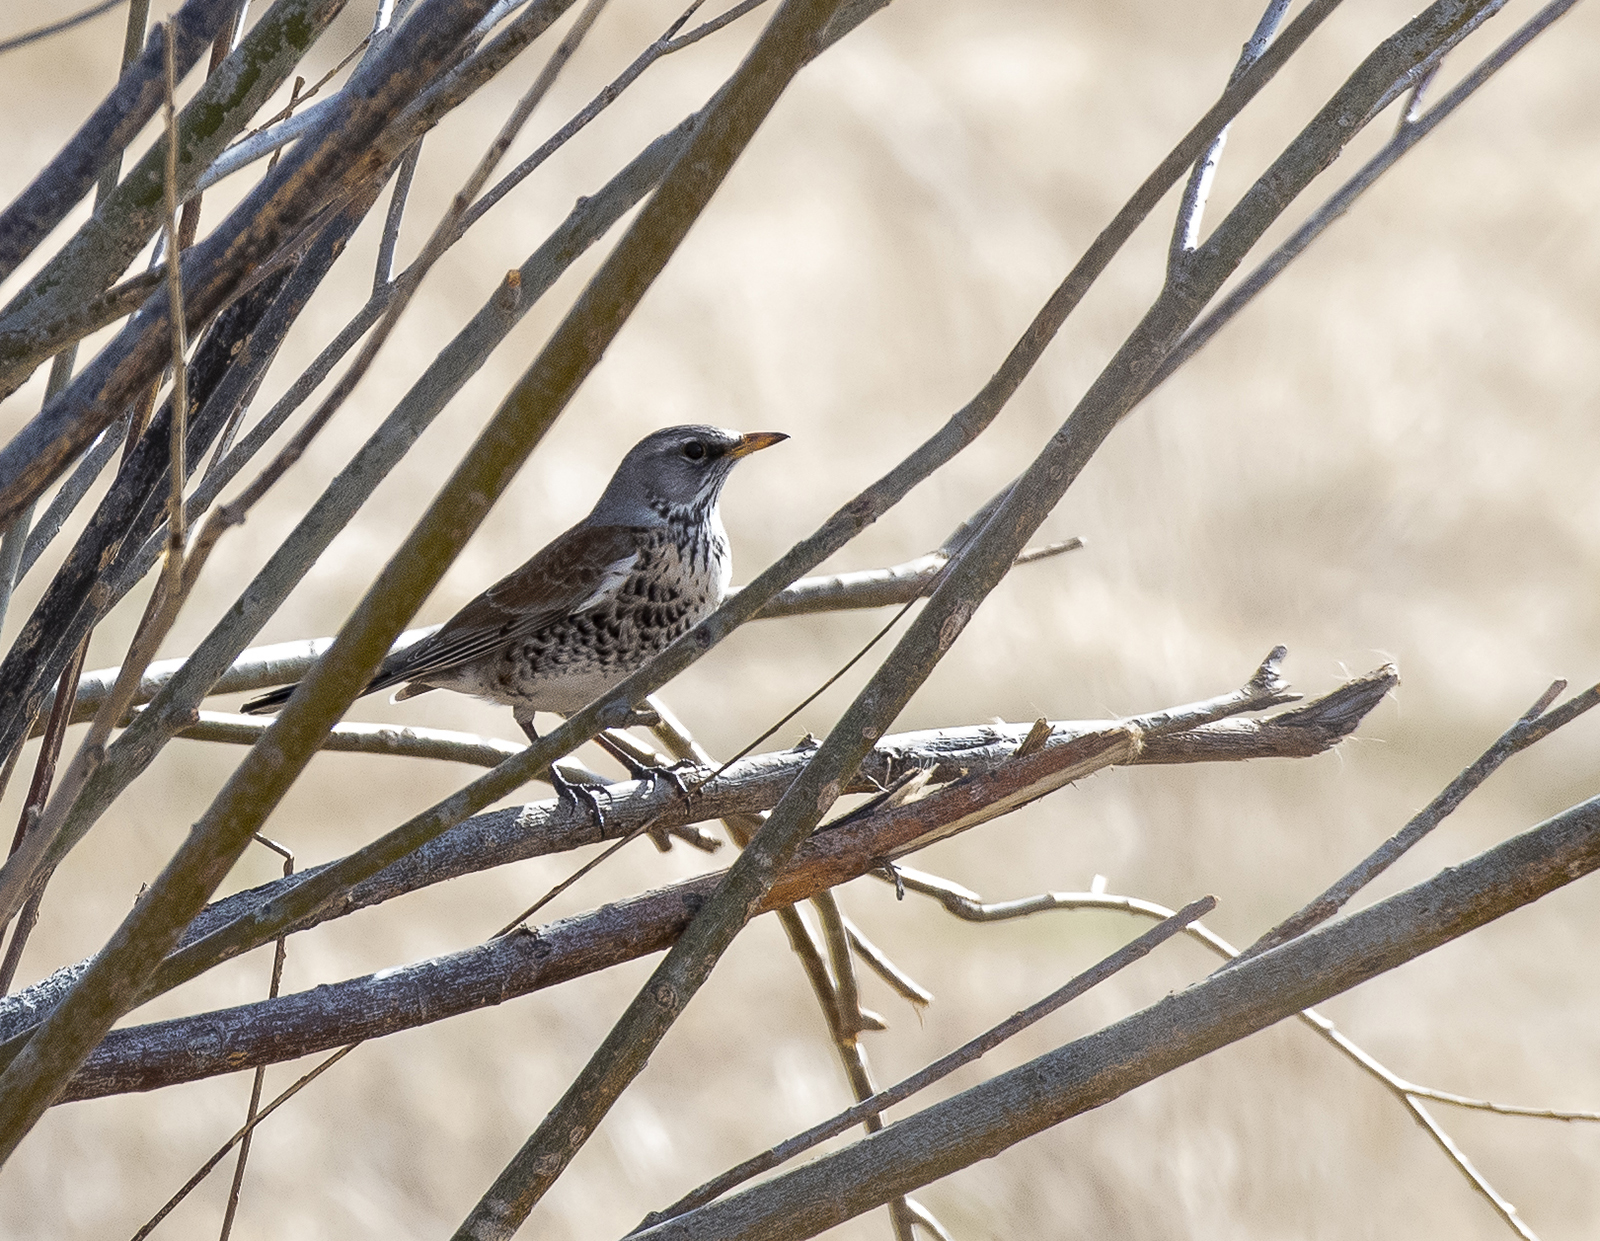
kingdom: Animalia
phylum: Chordata
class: Aves
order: Passeriformes
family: Turdidae
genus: Turdus
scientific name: Turdus pilaris
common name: Fieldfare
